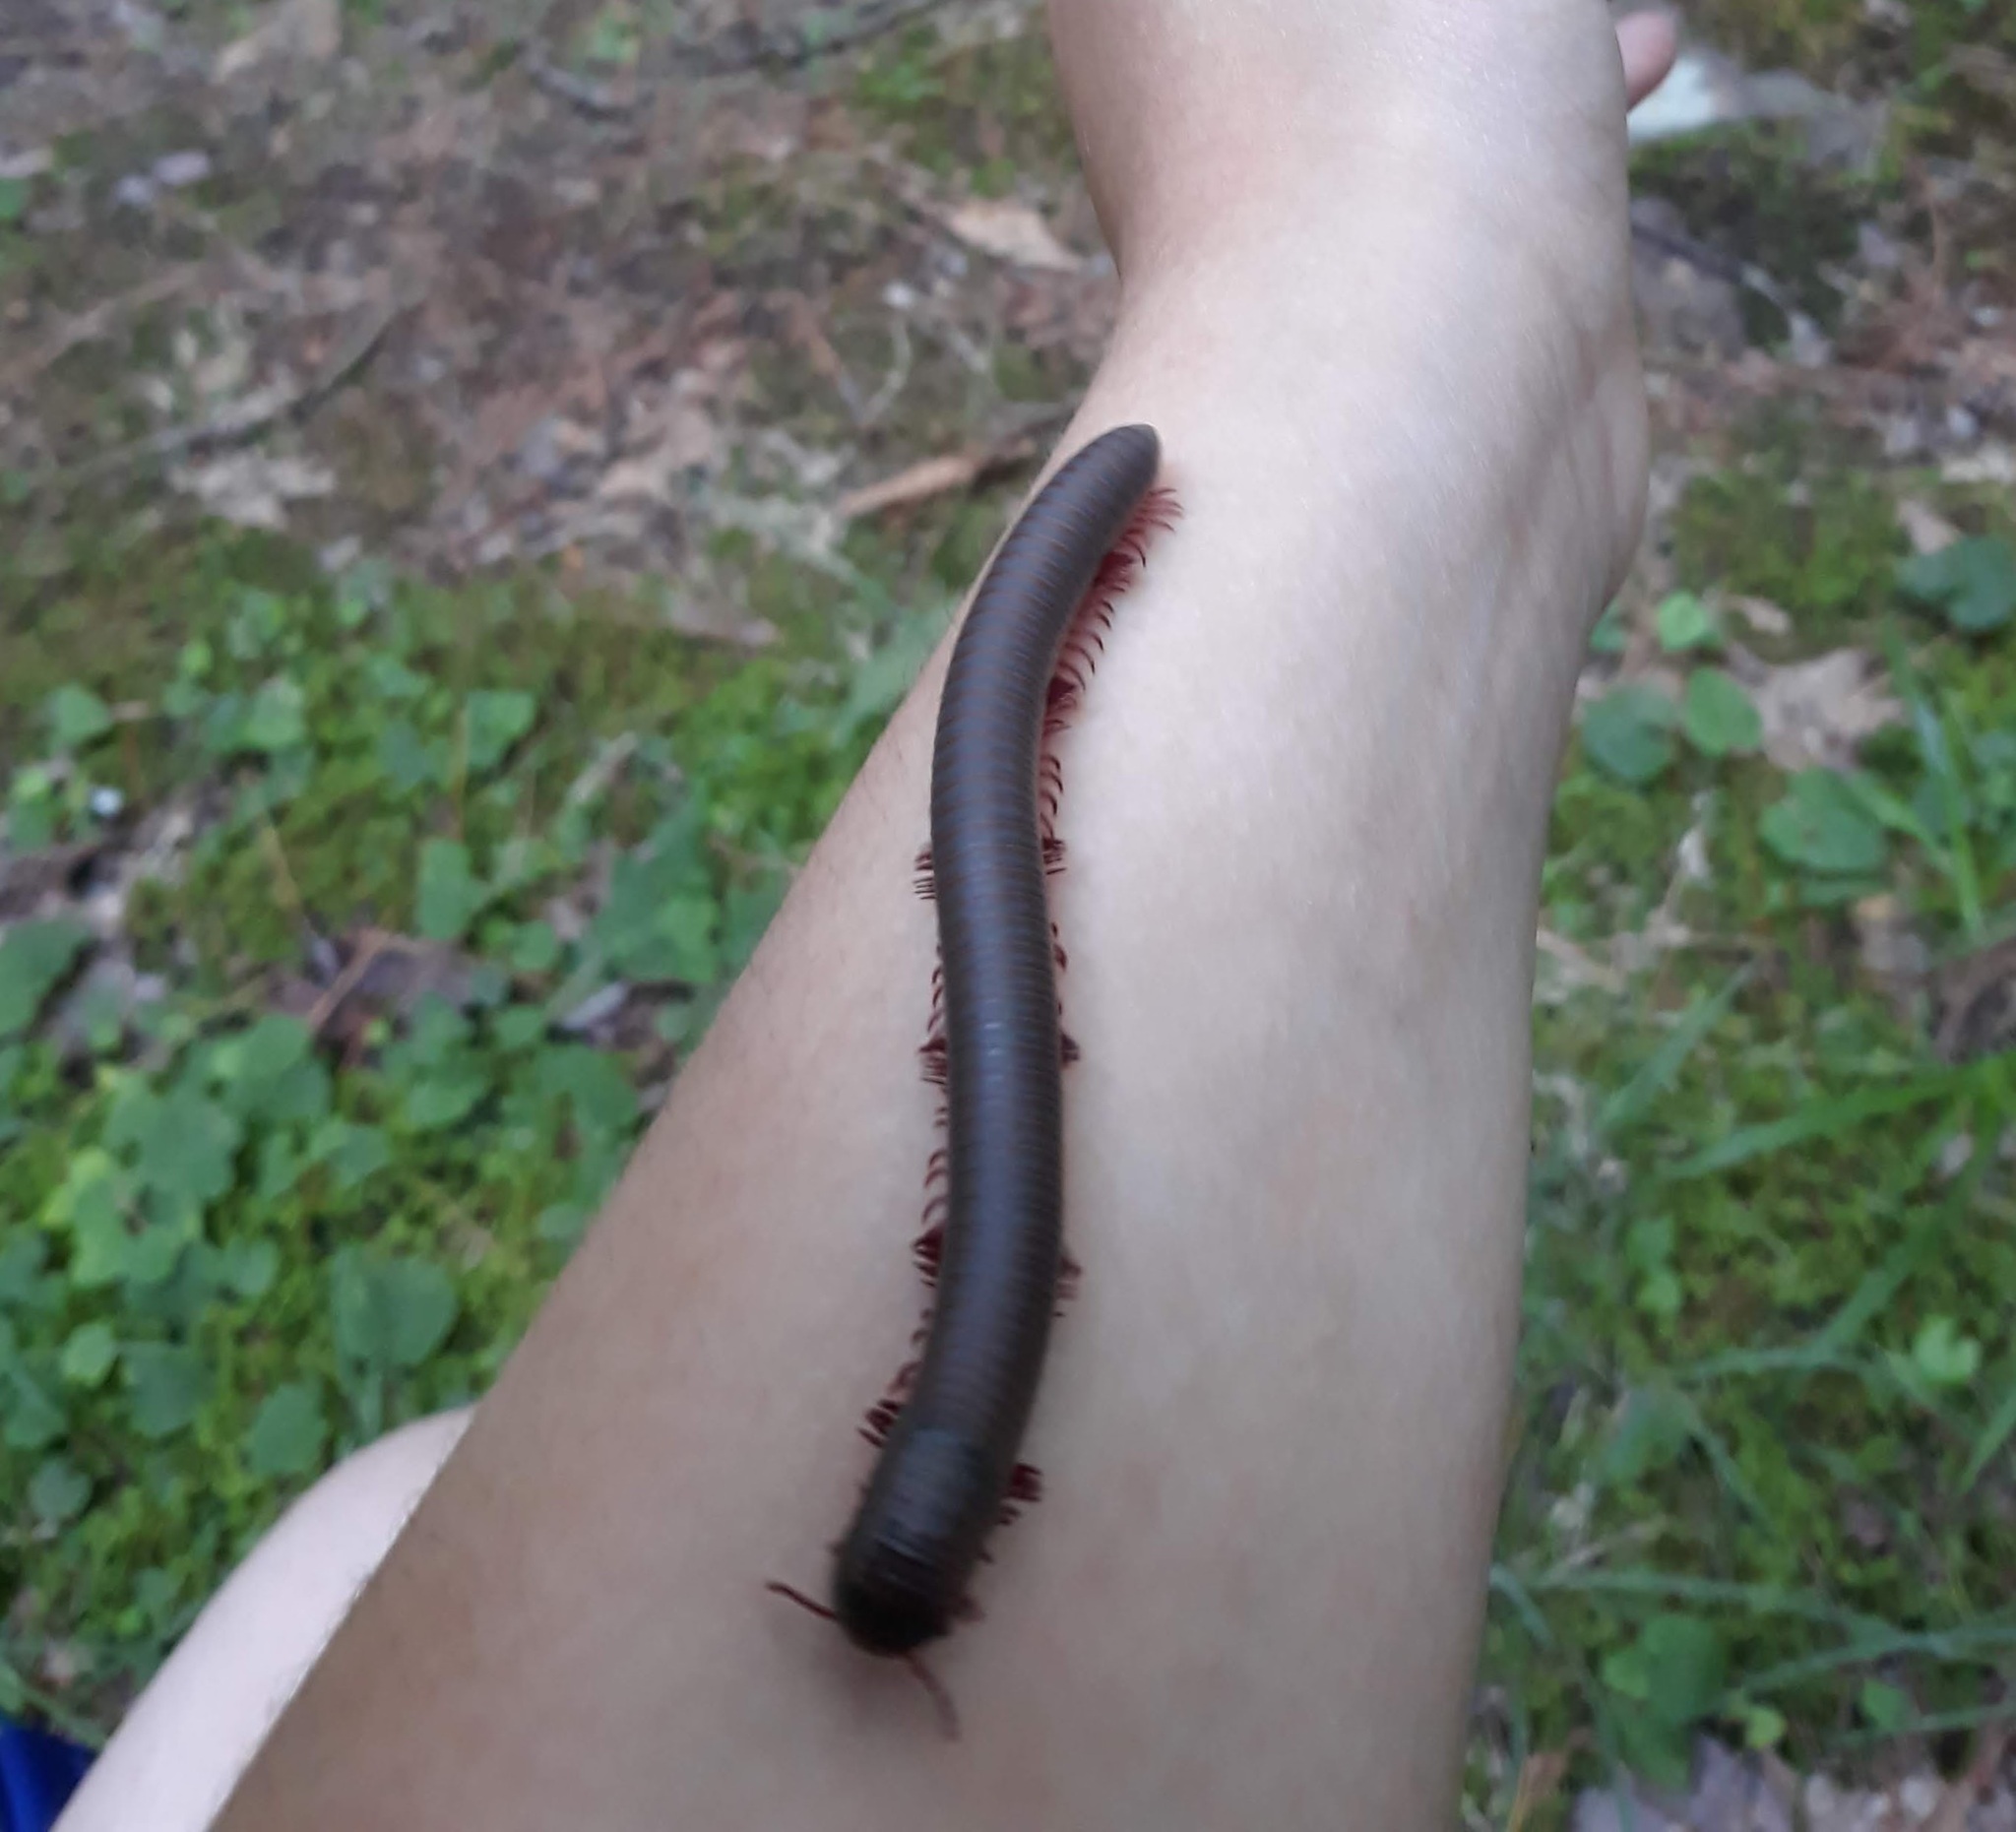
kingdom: Animalia
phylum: Arthropoda
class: Diplopoda
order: Spirobolida
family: Spirobolidae
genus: Narceus
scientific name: Narceus
